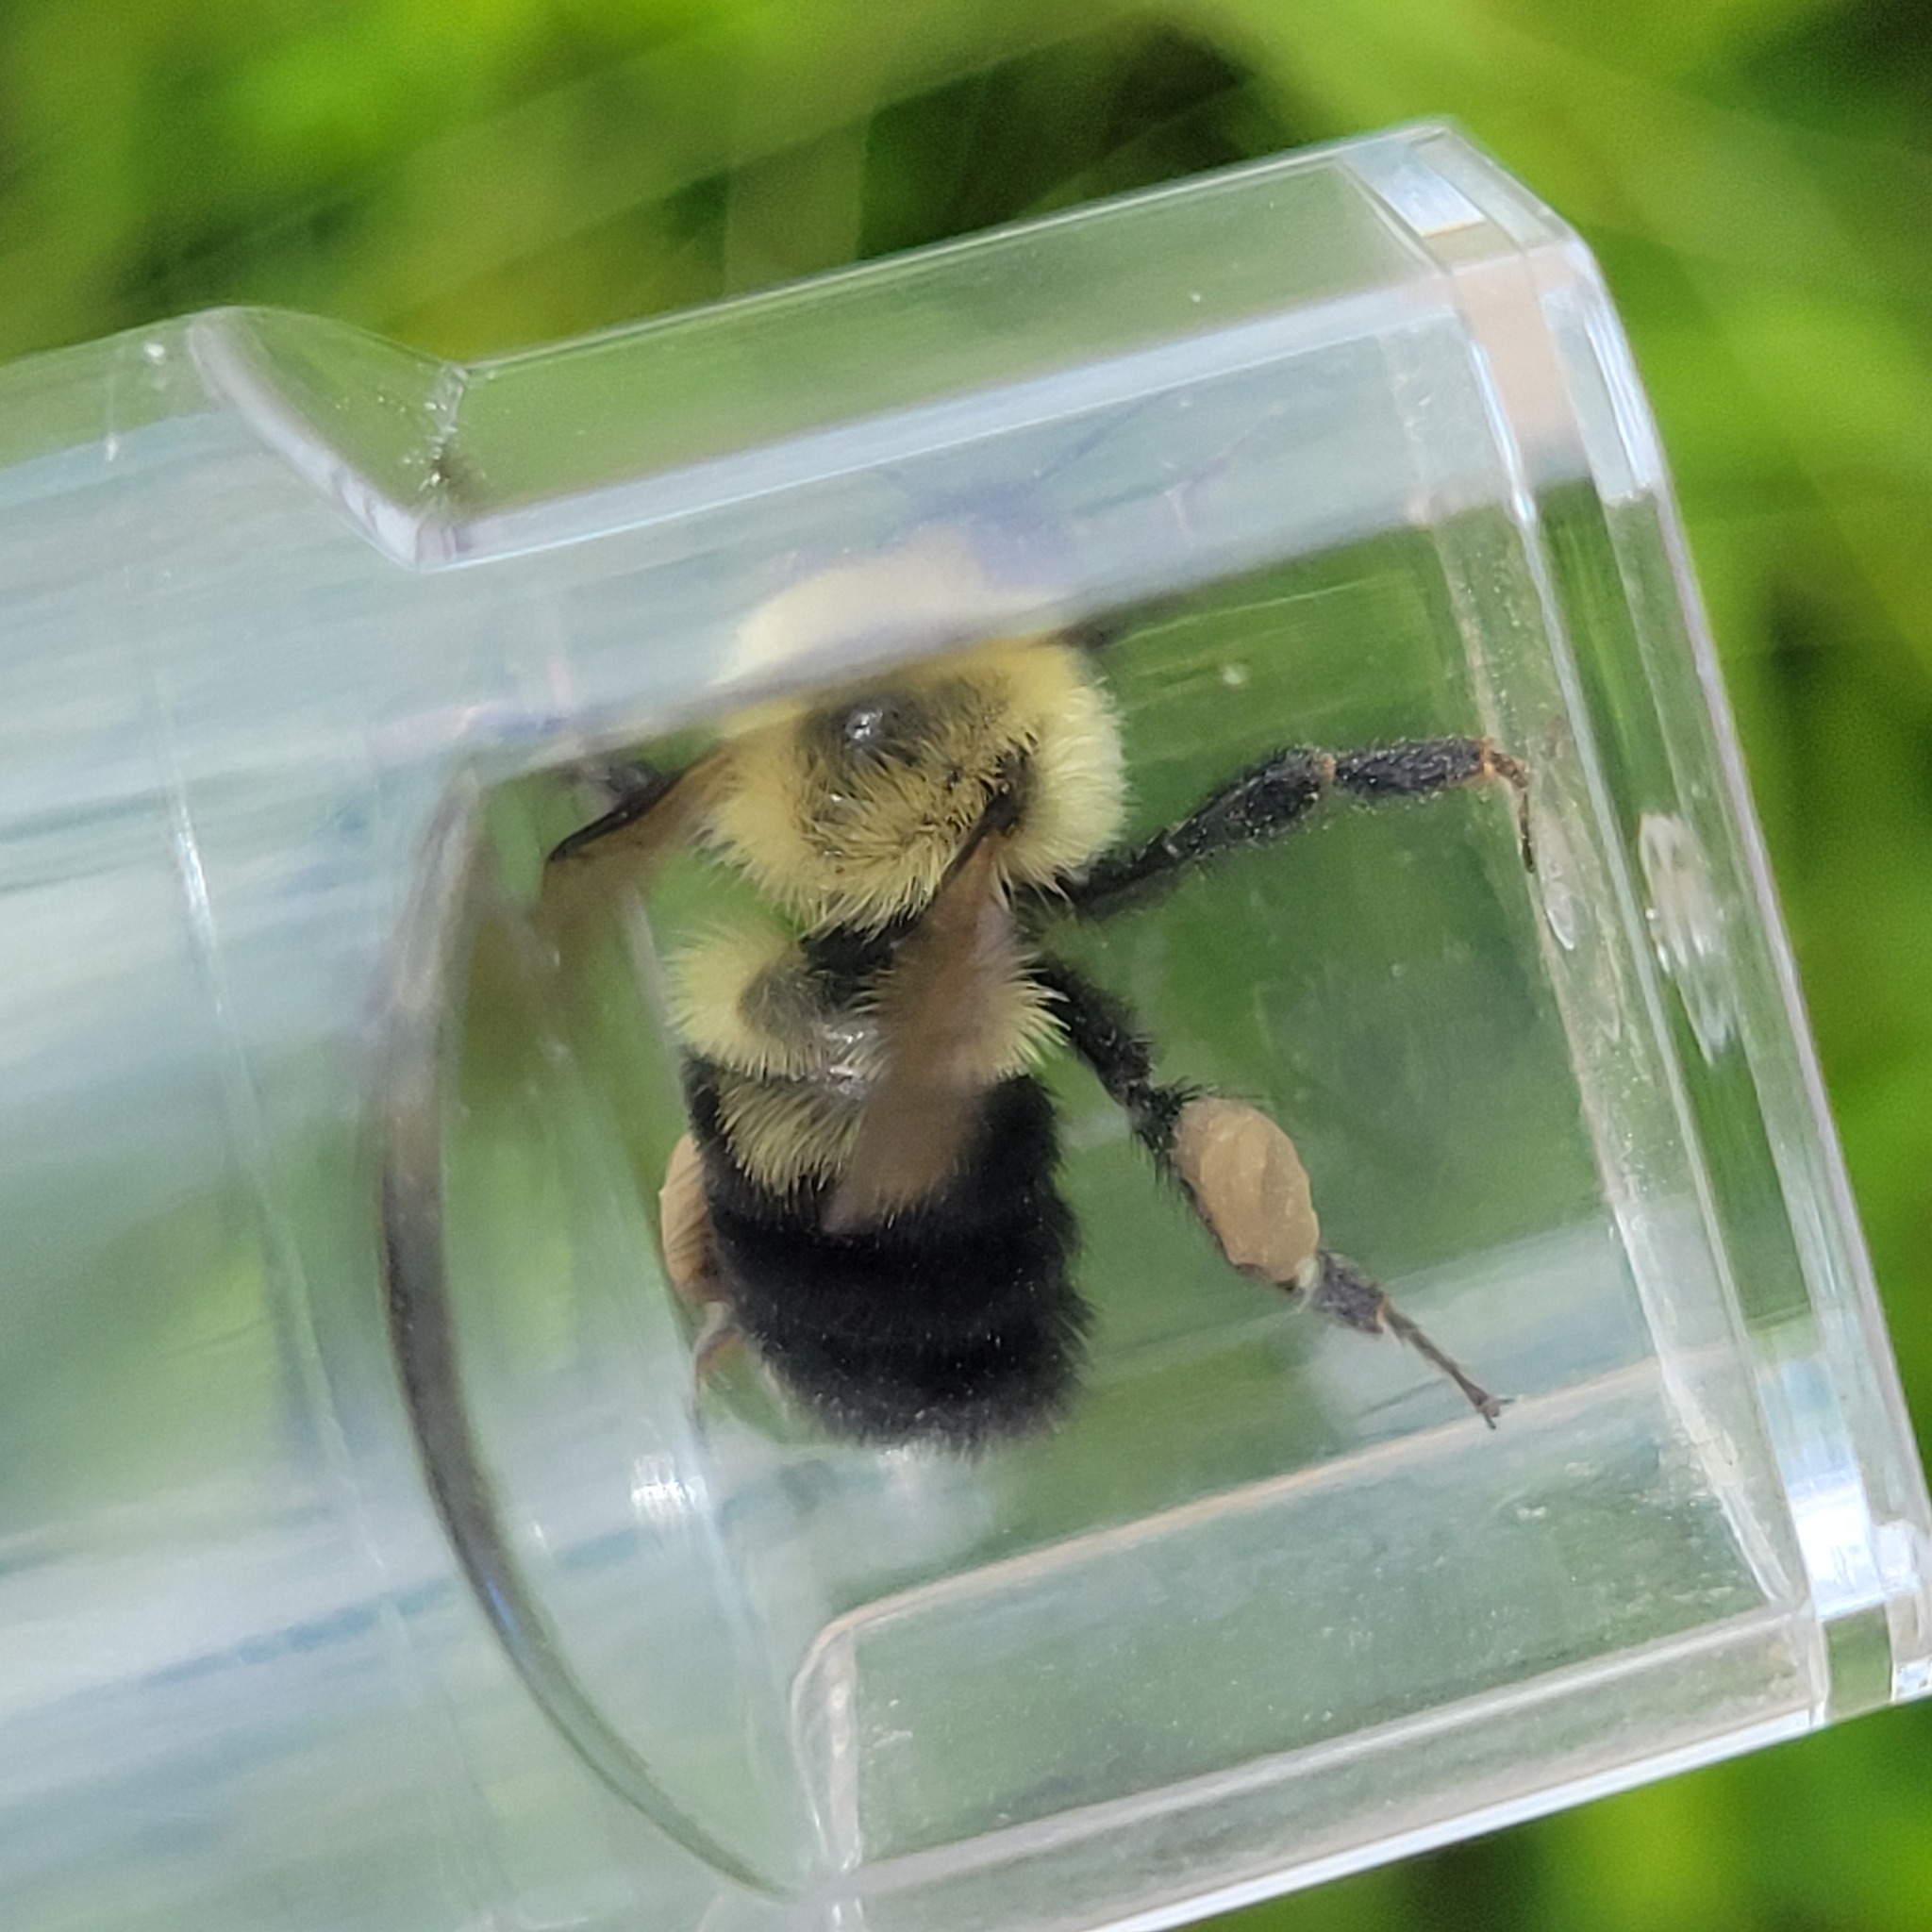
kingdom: Animalia
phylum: Arthropoda
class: Insecta
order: Hymenoptera
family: Apidae
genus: Bombus
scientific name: Bombus bimaculatus
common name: Two-spotted bumble bee
